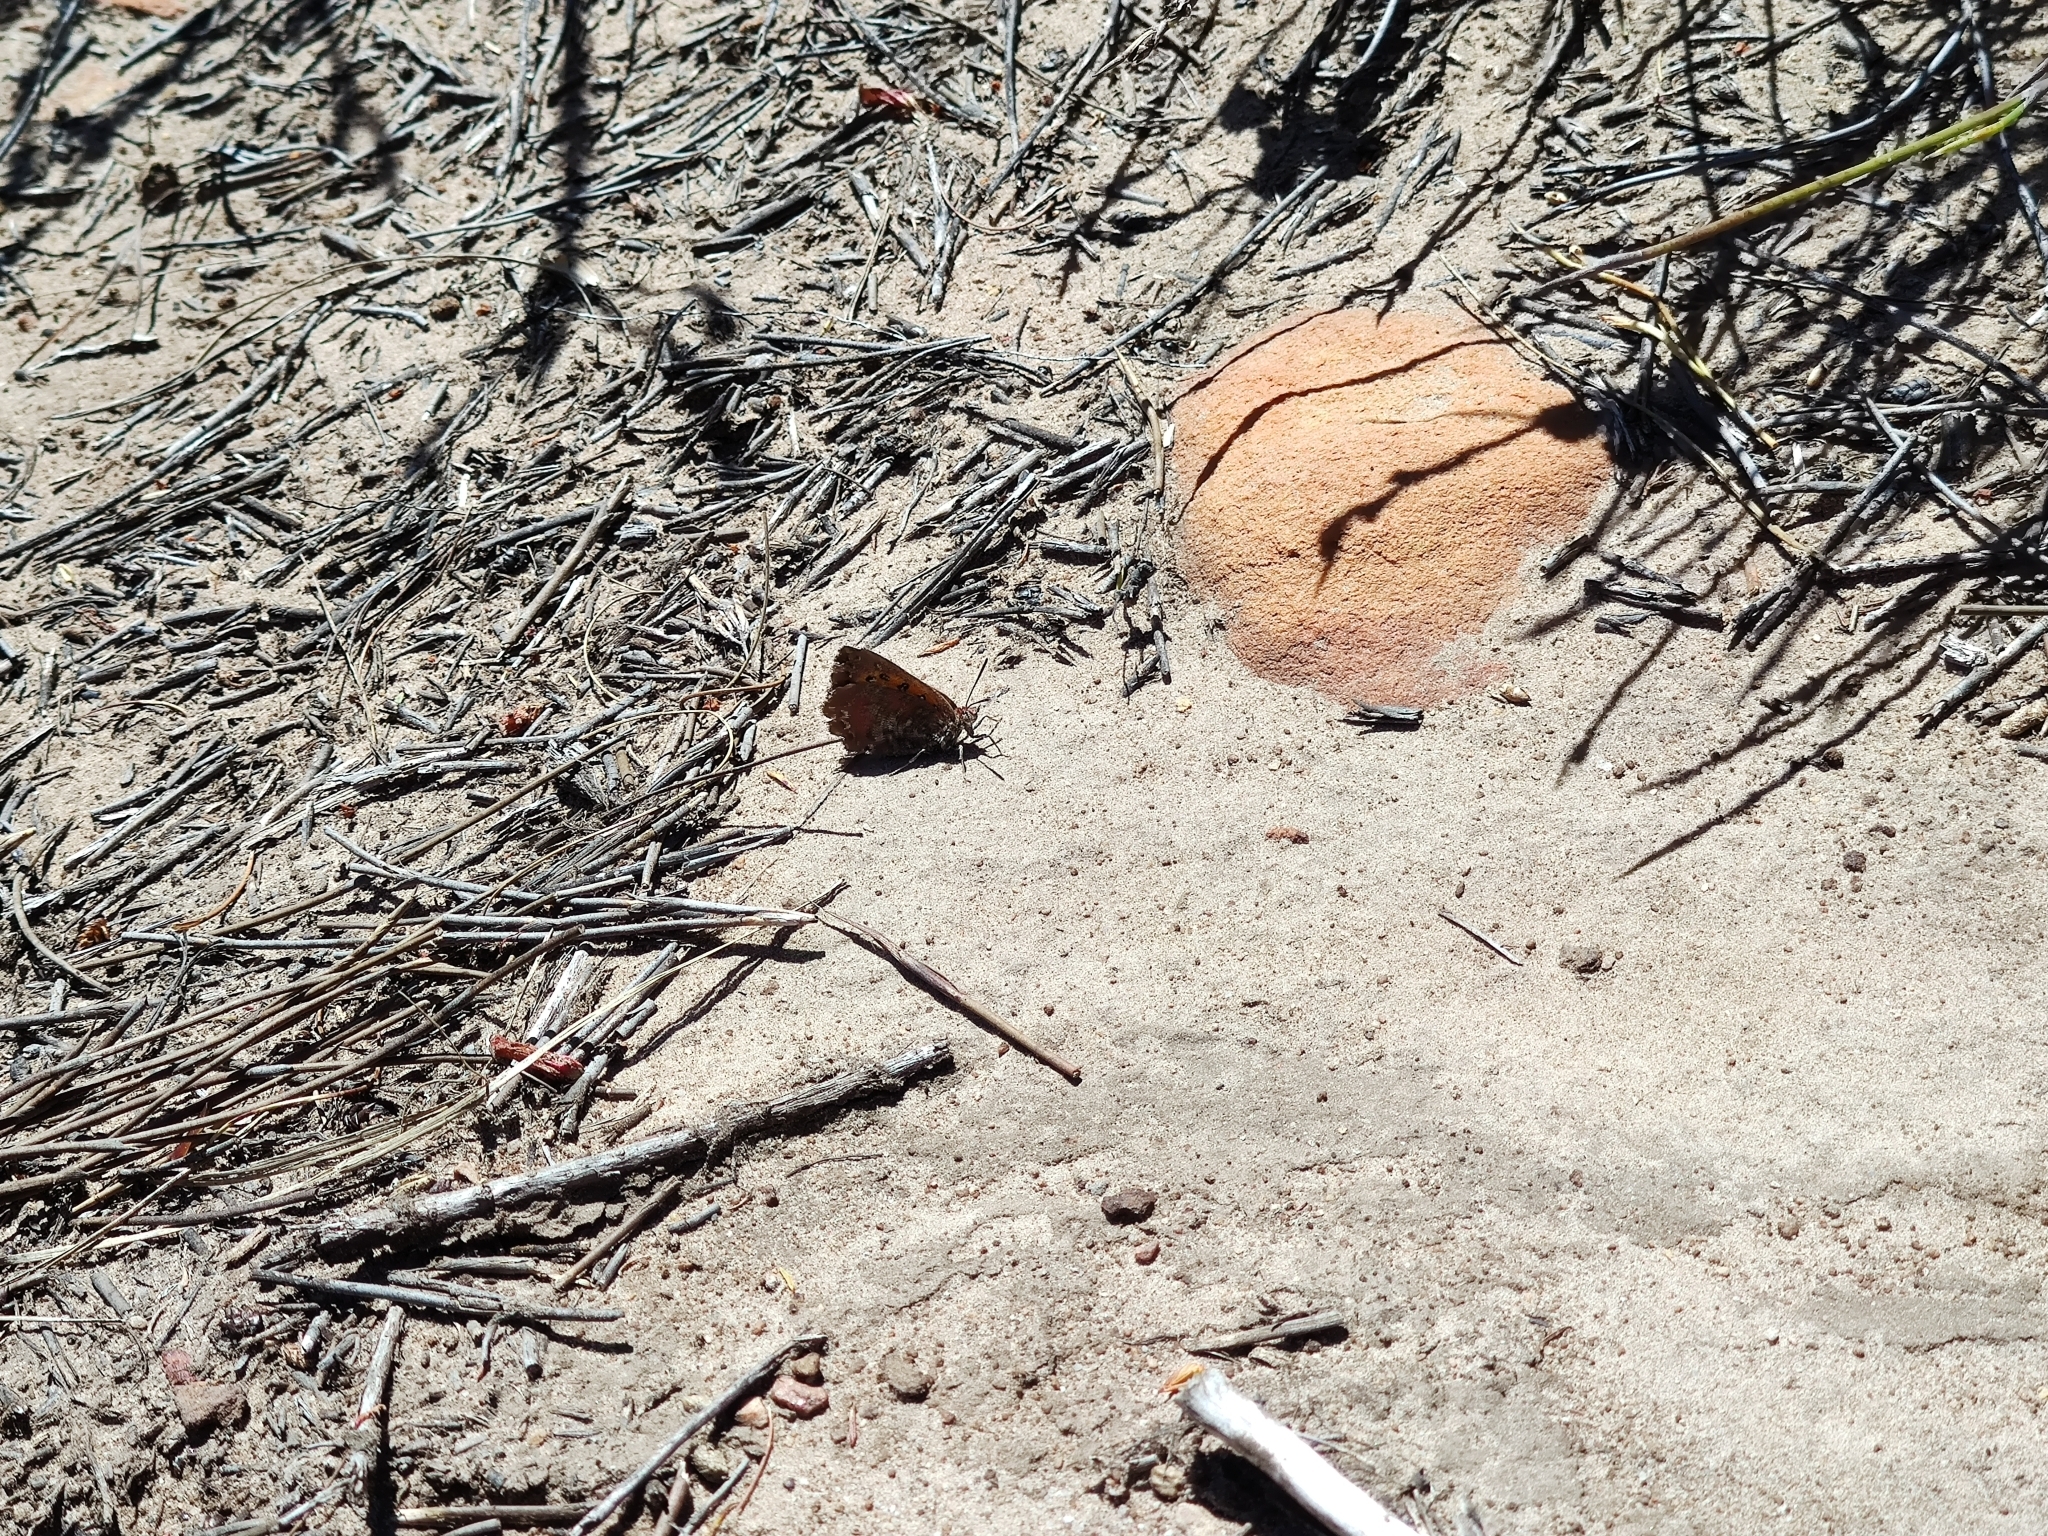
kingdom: Animalia
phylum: Arthropoda
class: Insecta
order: Lepidoptera
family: Lycaenidae
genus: Aloeides
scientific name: Aloeides pallida
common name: Giant copper
